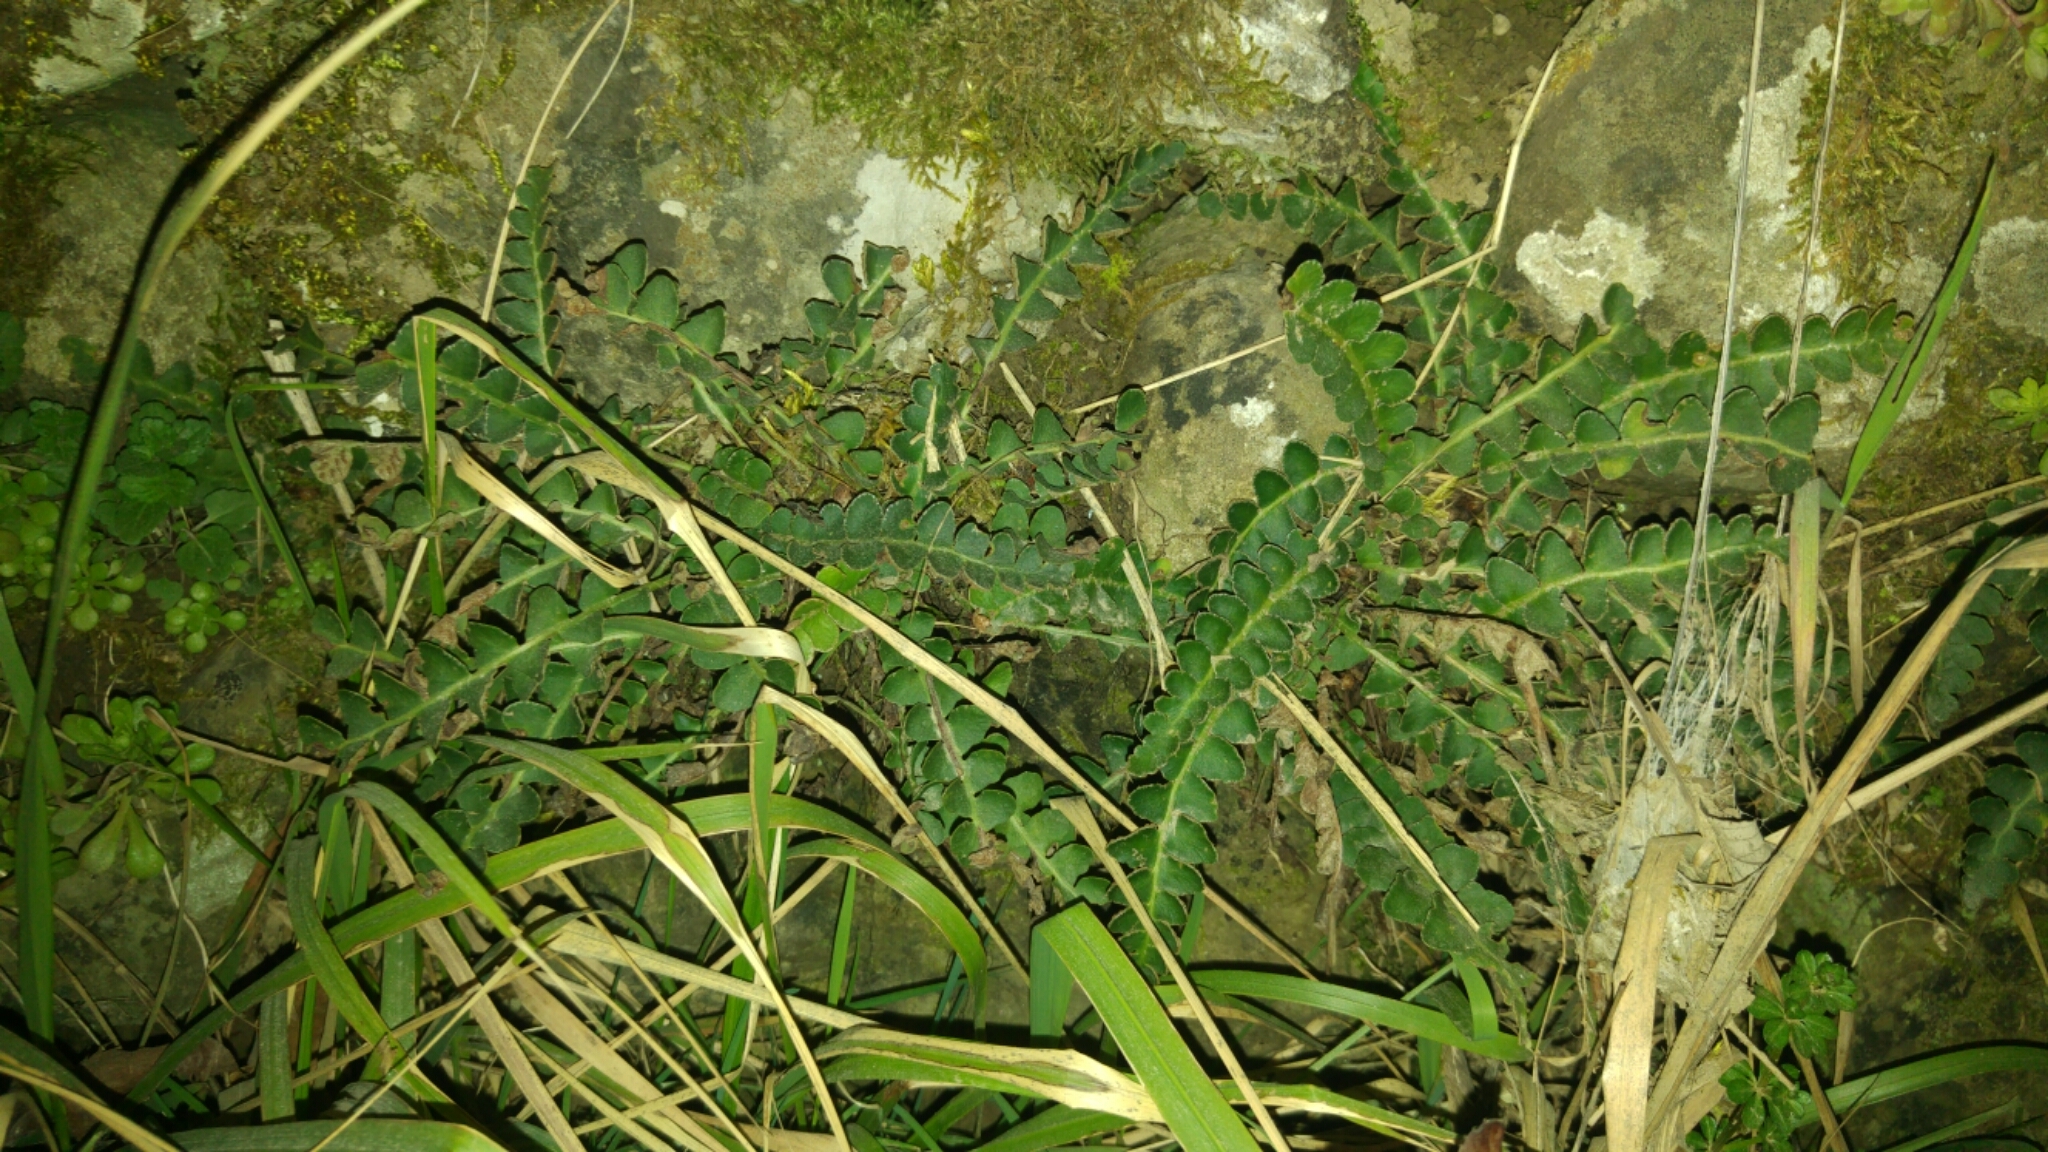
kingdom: Plantae
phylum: Tracheophyta
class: Polypodiopsida
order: Polypodiales
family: Aspleniaceae
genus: Asplenium
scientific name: Asplenium ceterach
